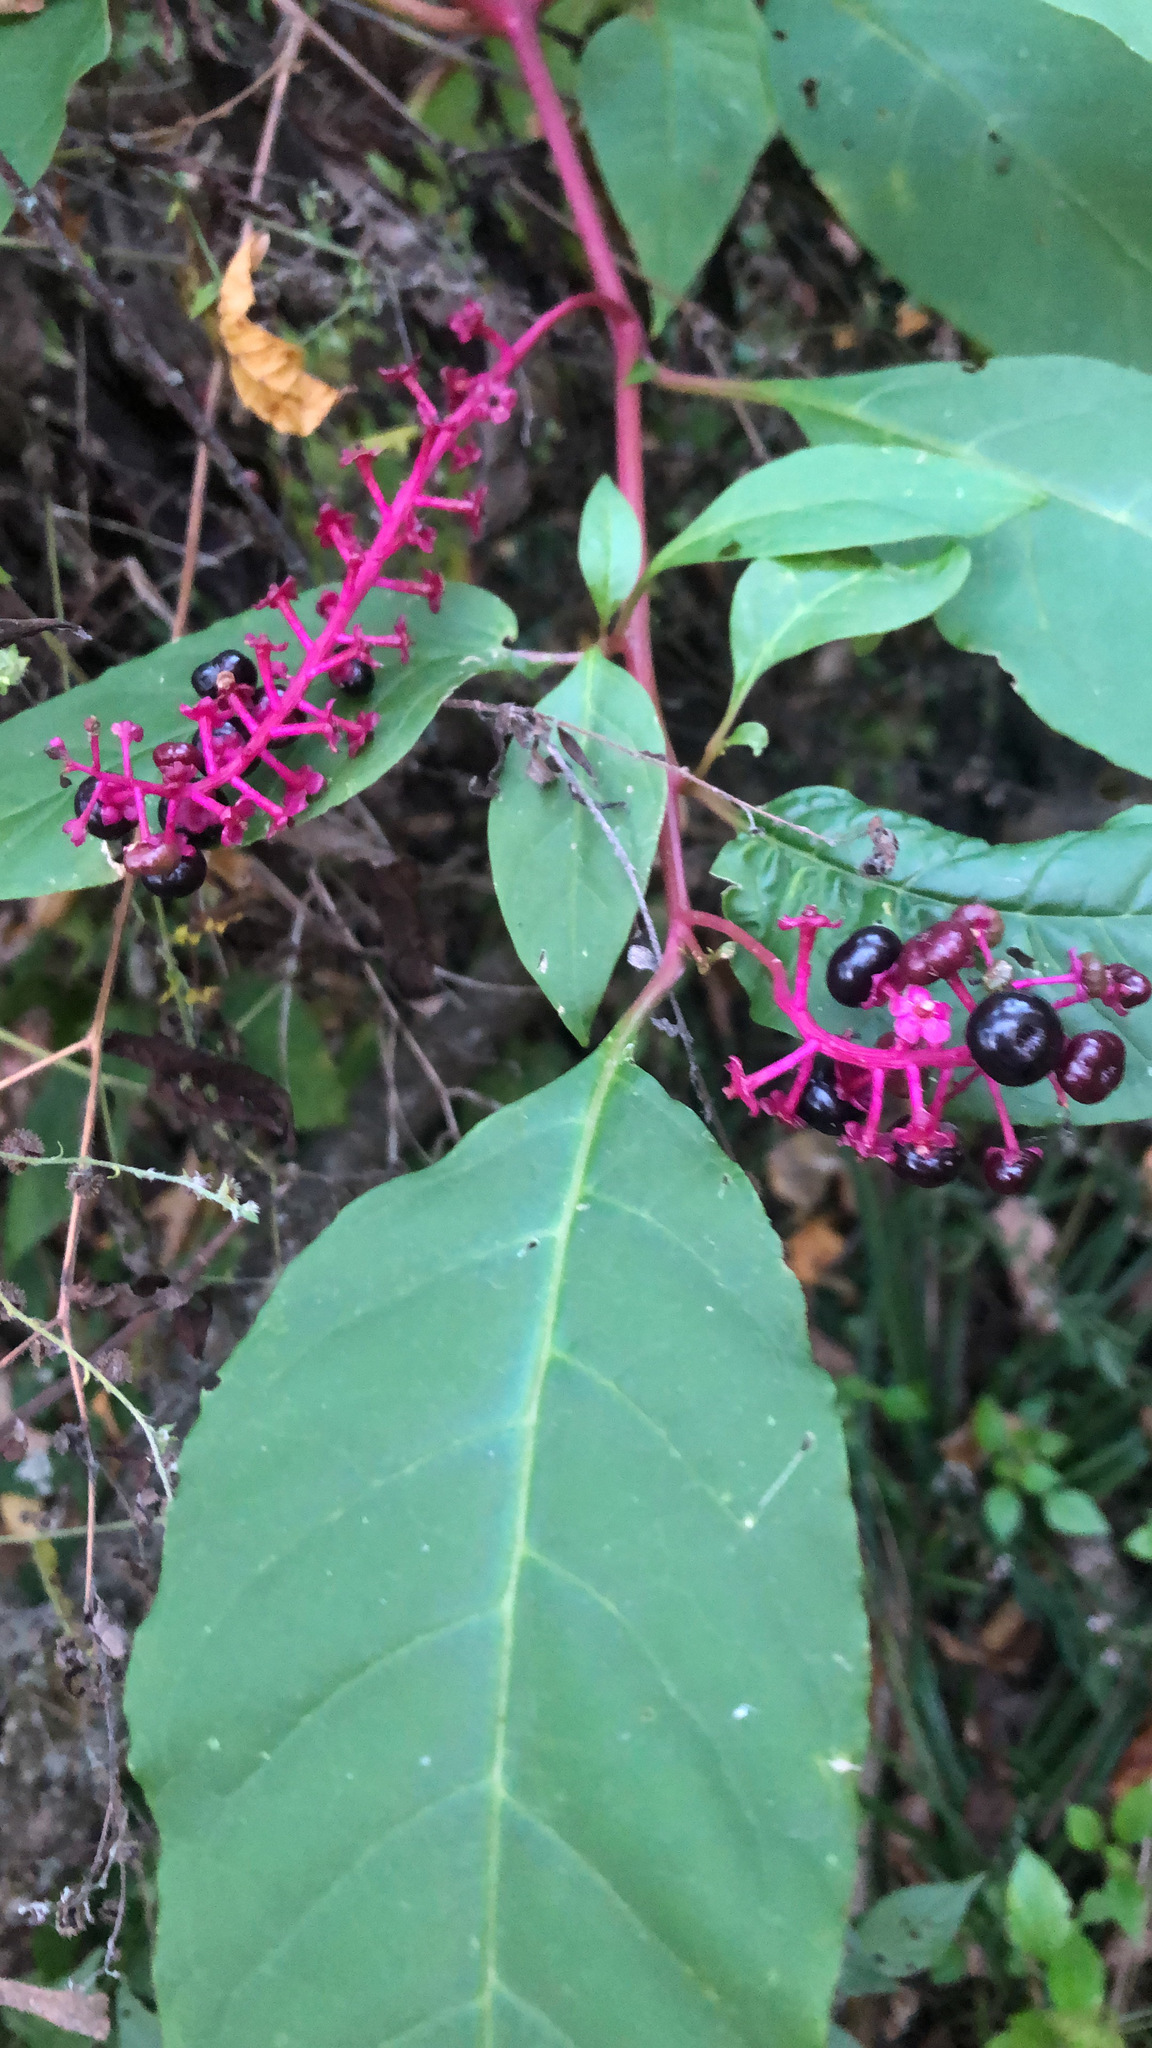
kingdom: Plantae
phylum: Tracheophyta
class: Magnoliopsida
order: Caryophyllales
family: Phytolaccaceae
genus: Phytolacca
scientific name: Phytolacca americana
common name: American pokeweed
